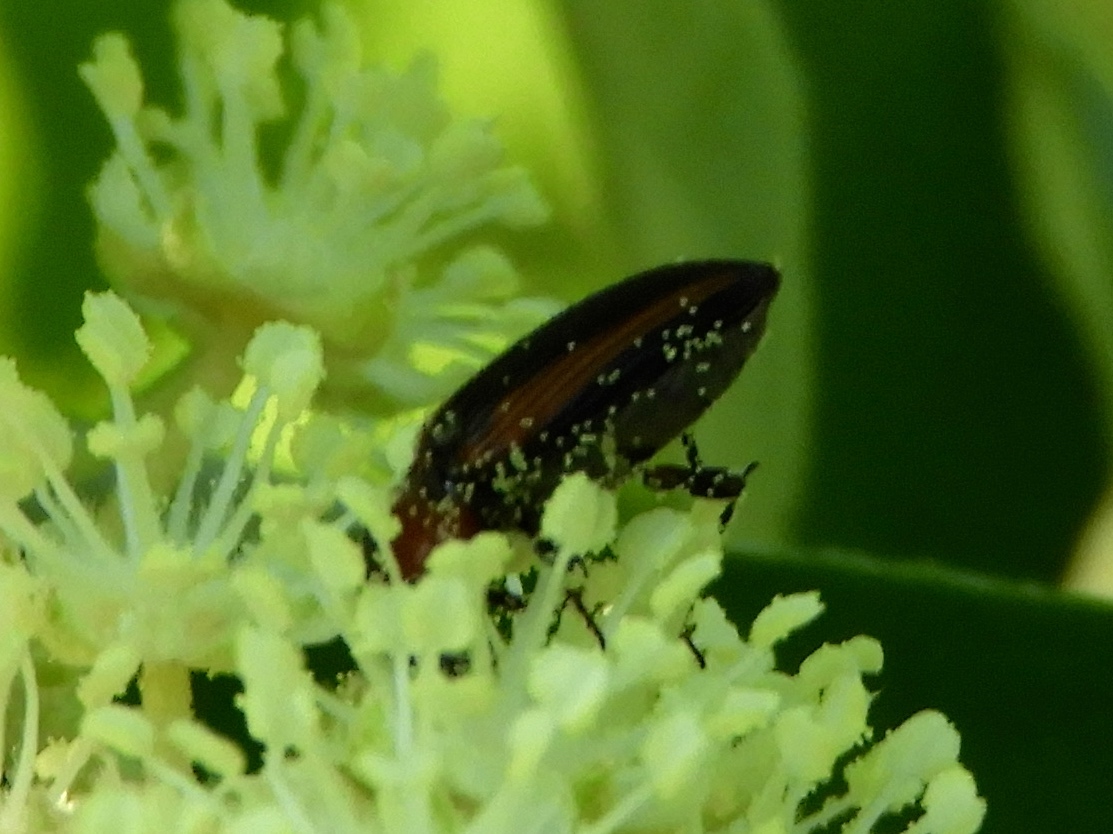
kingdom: Animalia
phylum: Arthropoda
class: Insecta
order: Coleoptera
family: Elateridae
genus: Cardiophorus
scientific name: Cardiophorus aptopoides
